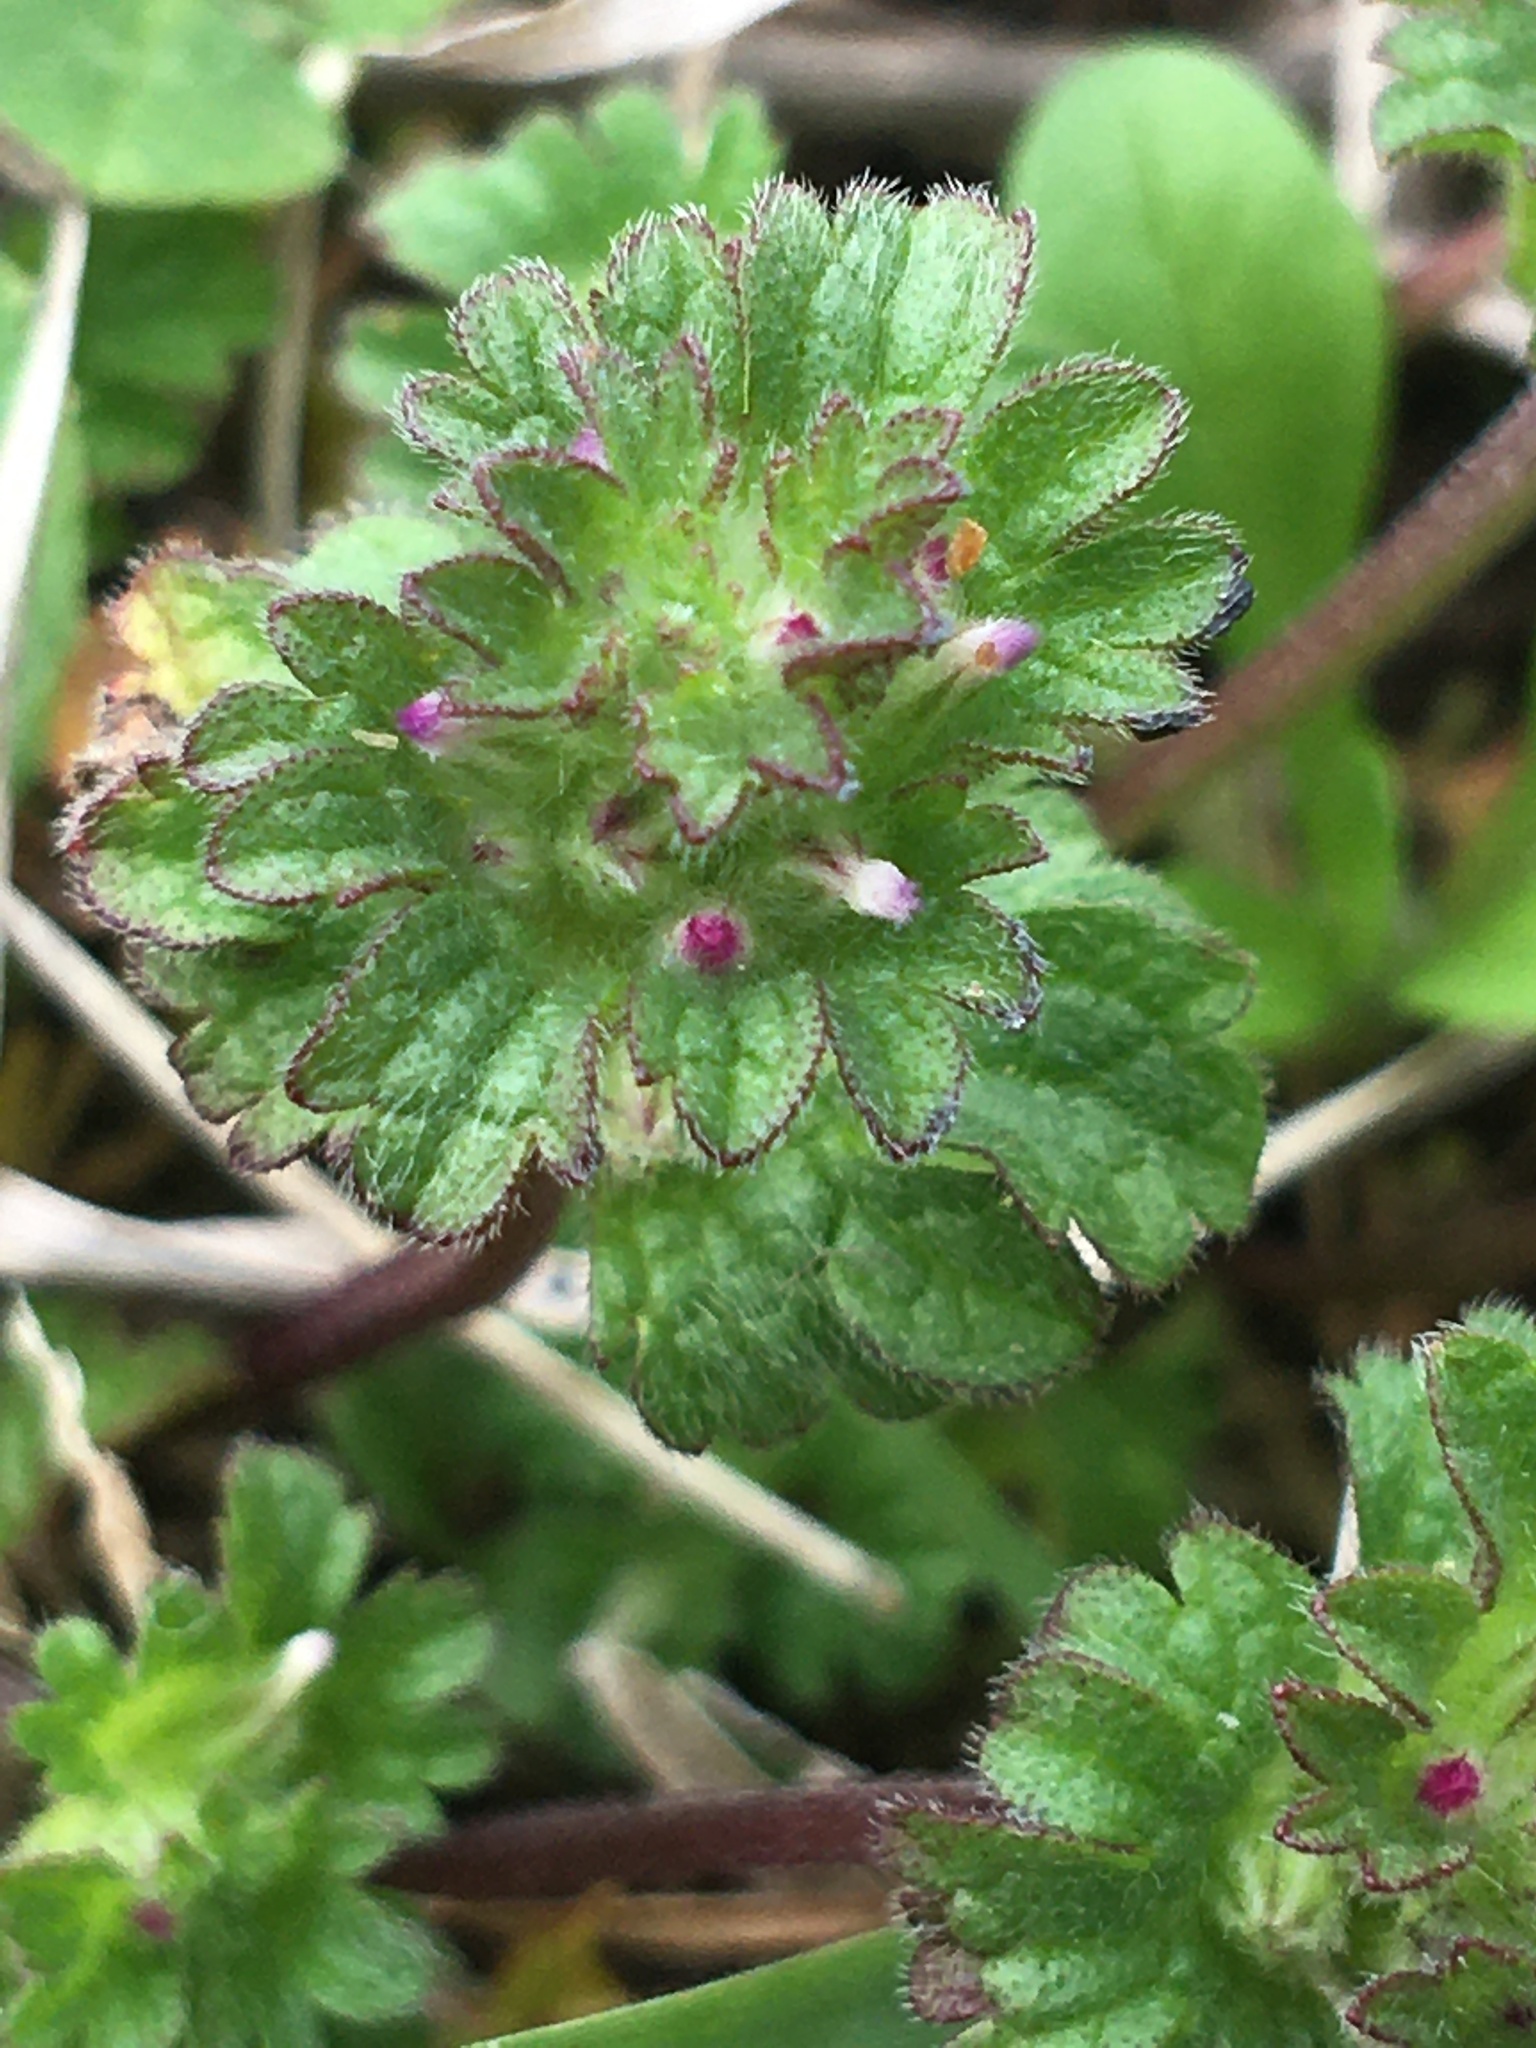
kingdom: Plantae
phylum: Tracheophyta
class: Magnoliopsida
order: Lamiales
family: Lamiaceae
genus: Lamium
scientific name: Lamium amplexicaule
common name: Henbit dead-nettle
